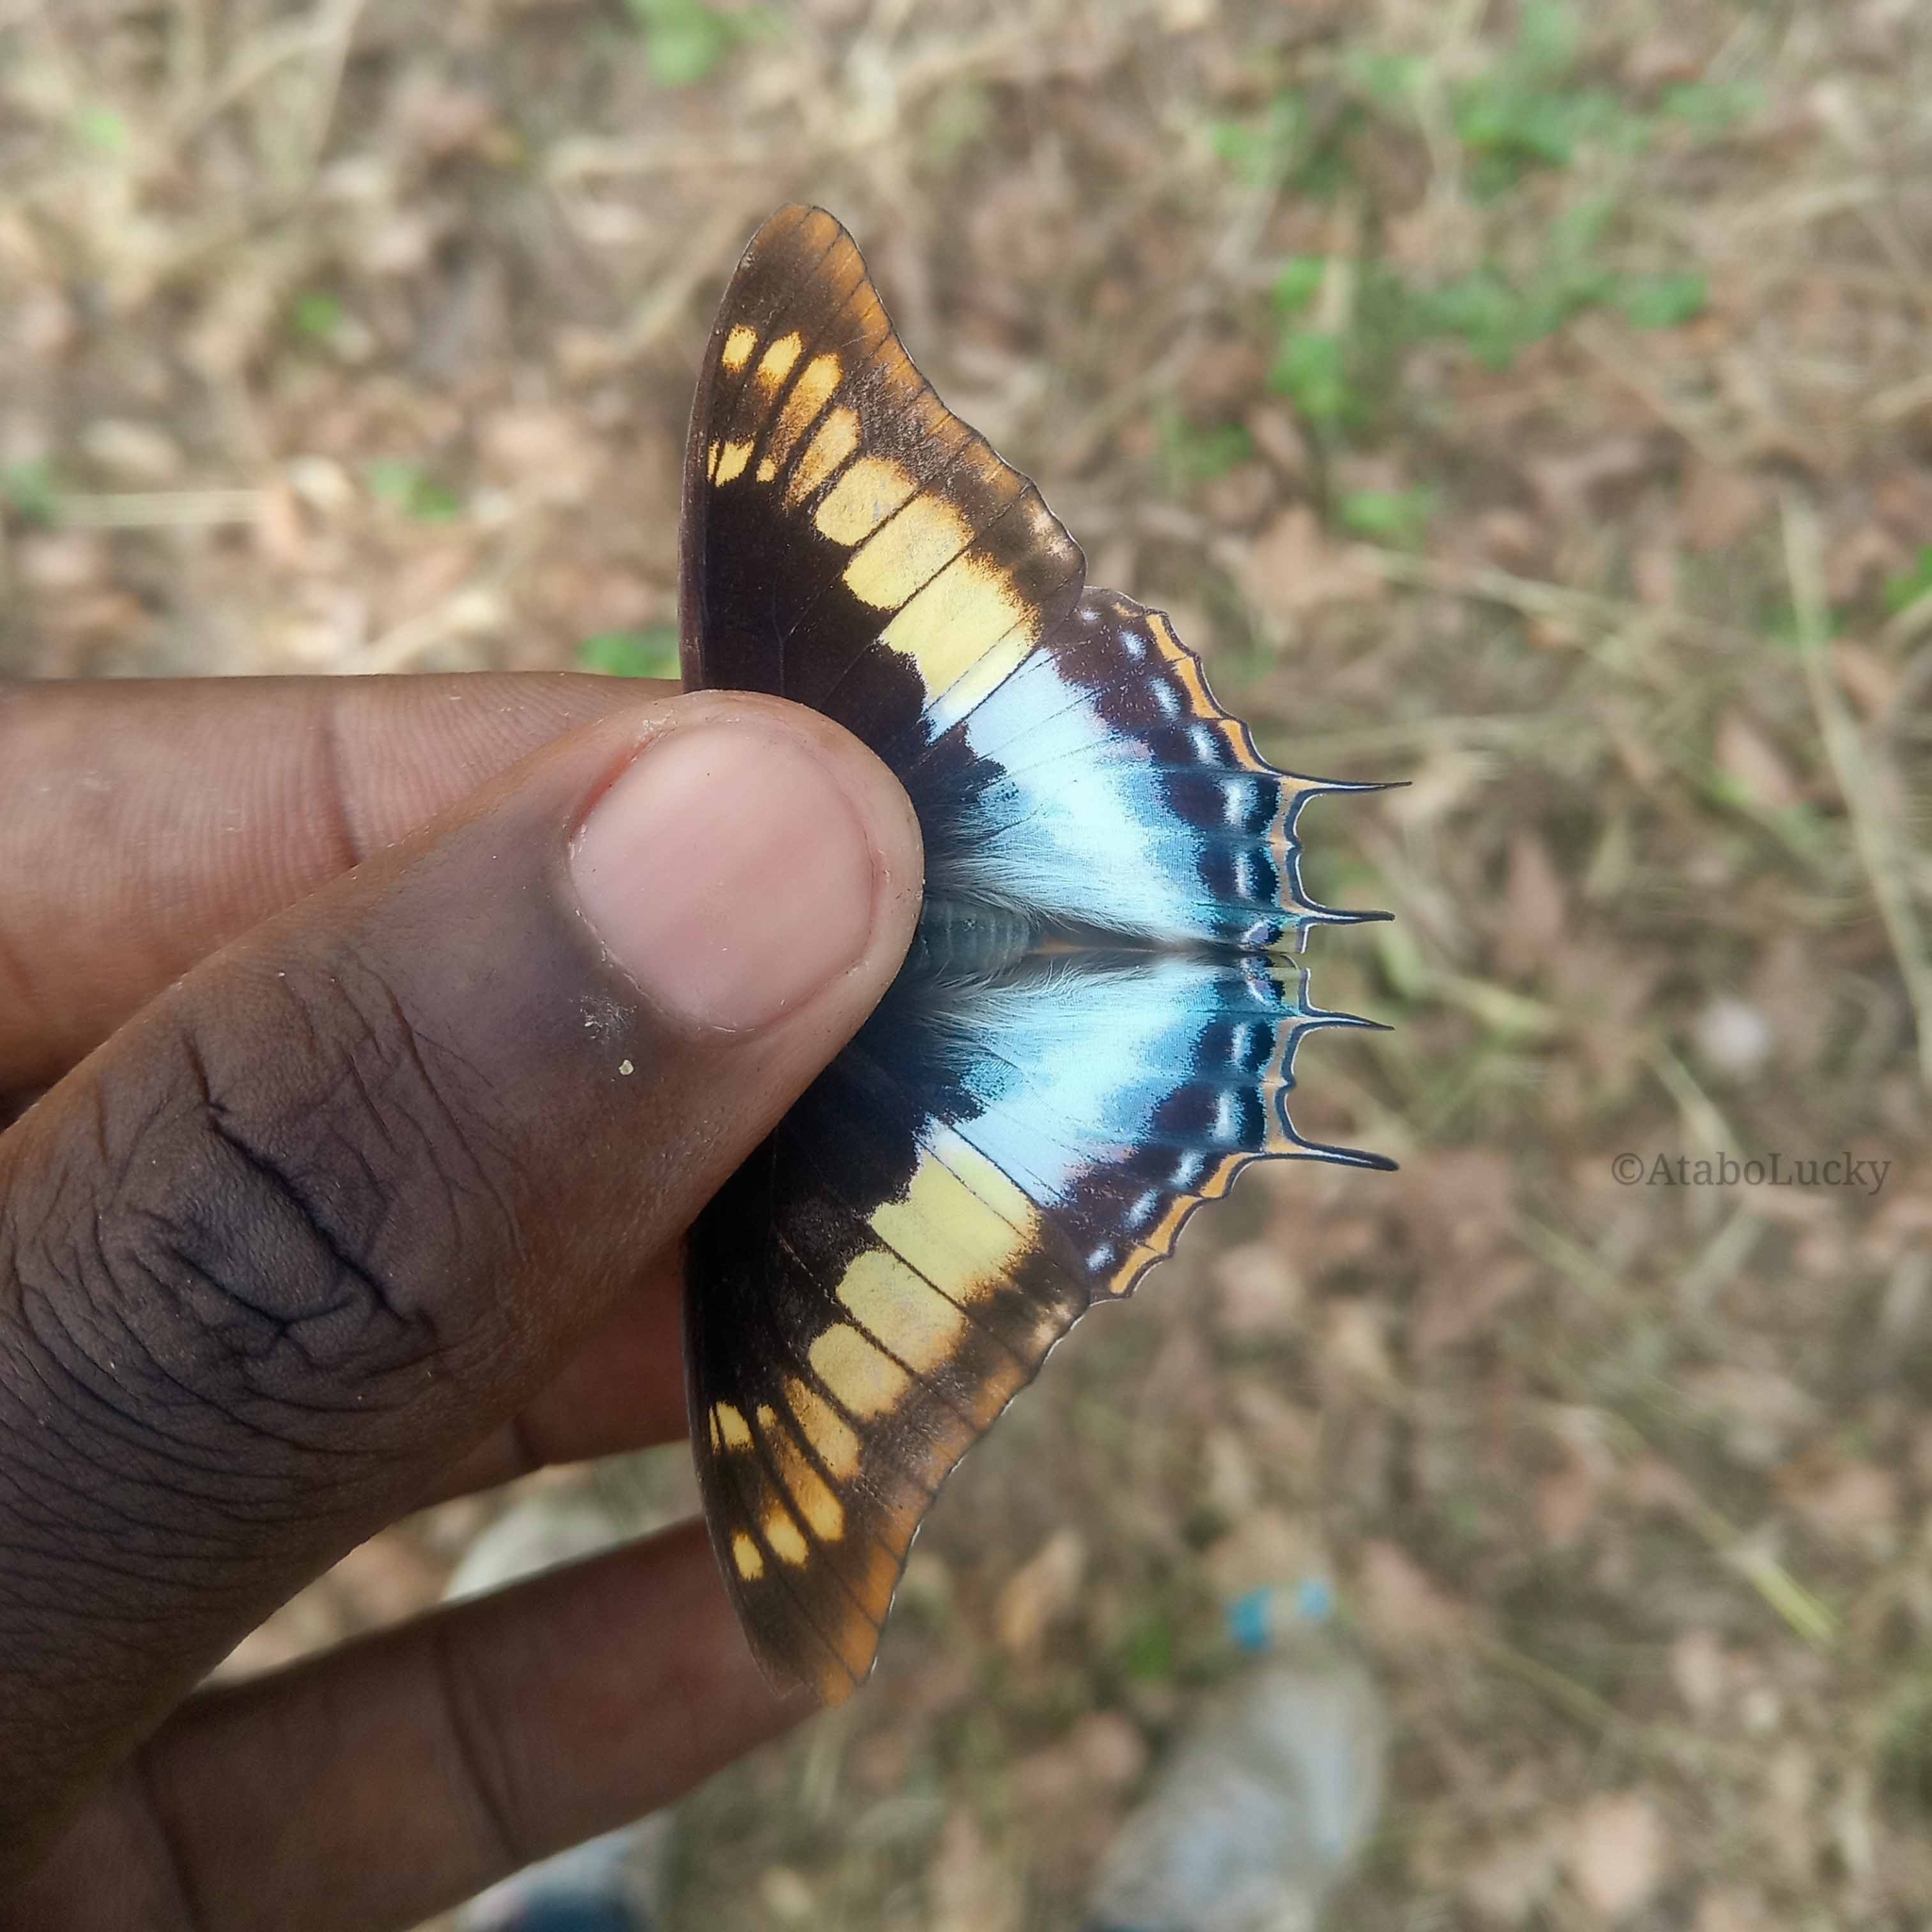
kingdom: Animalia
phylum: Arthropoda
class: Insecta
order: Lepidoptera
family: Nymphalidae
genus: Charaxes
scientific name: Charaxes viola
